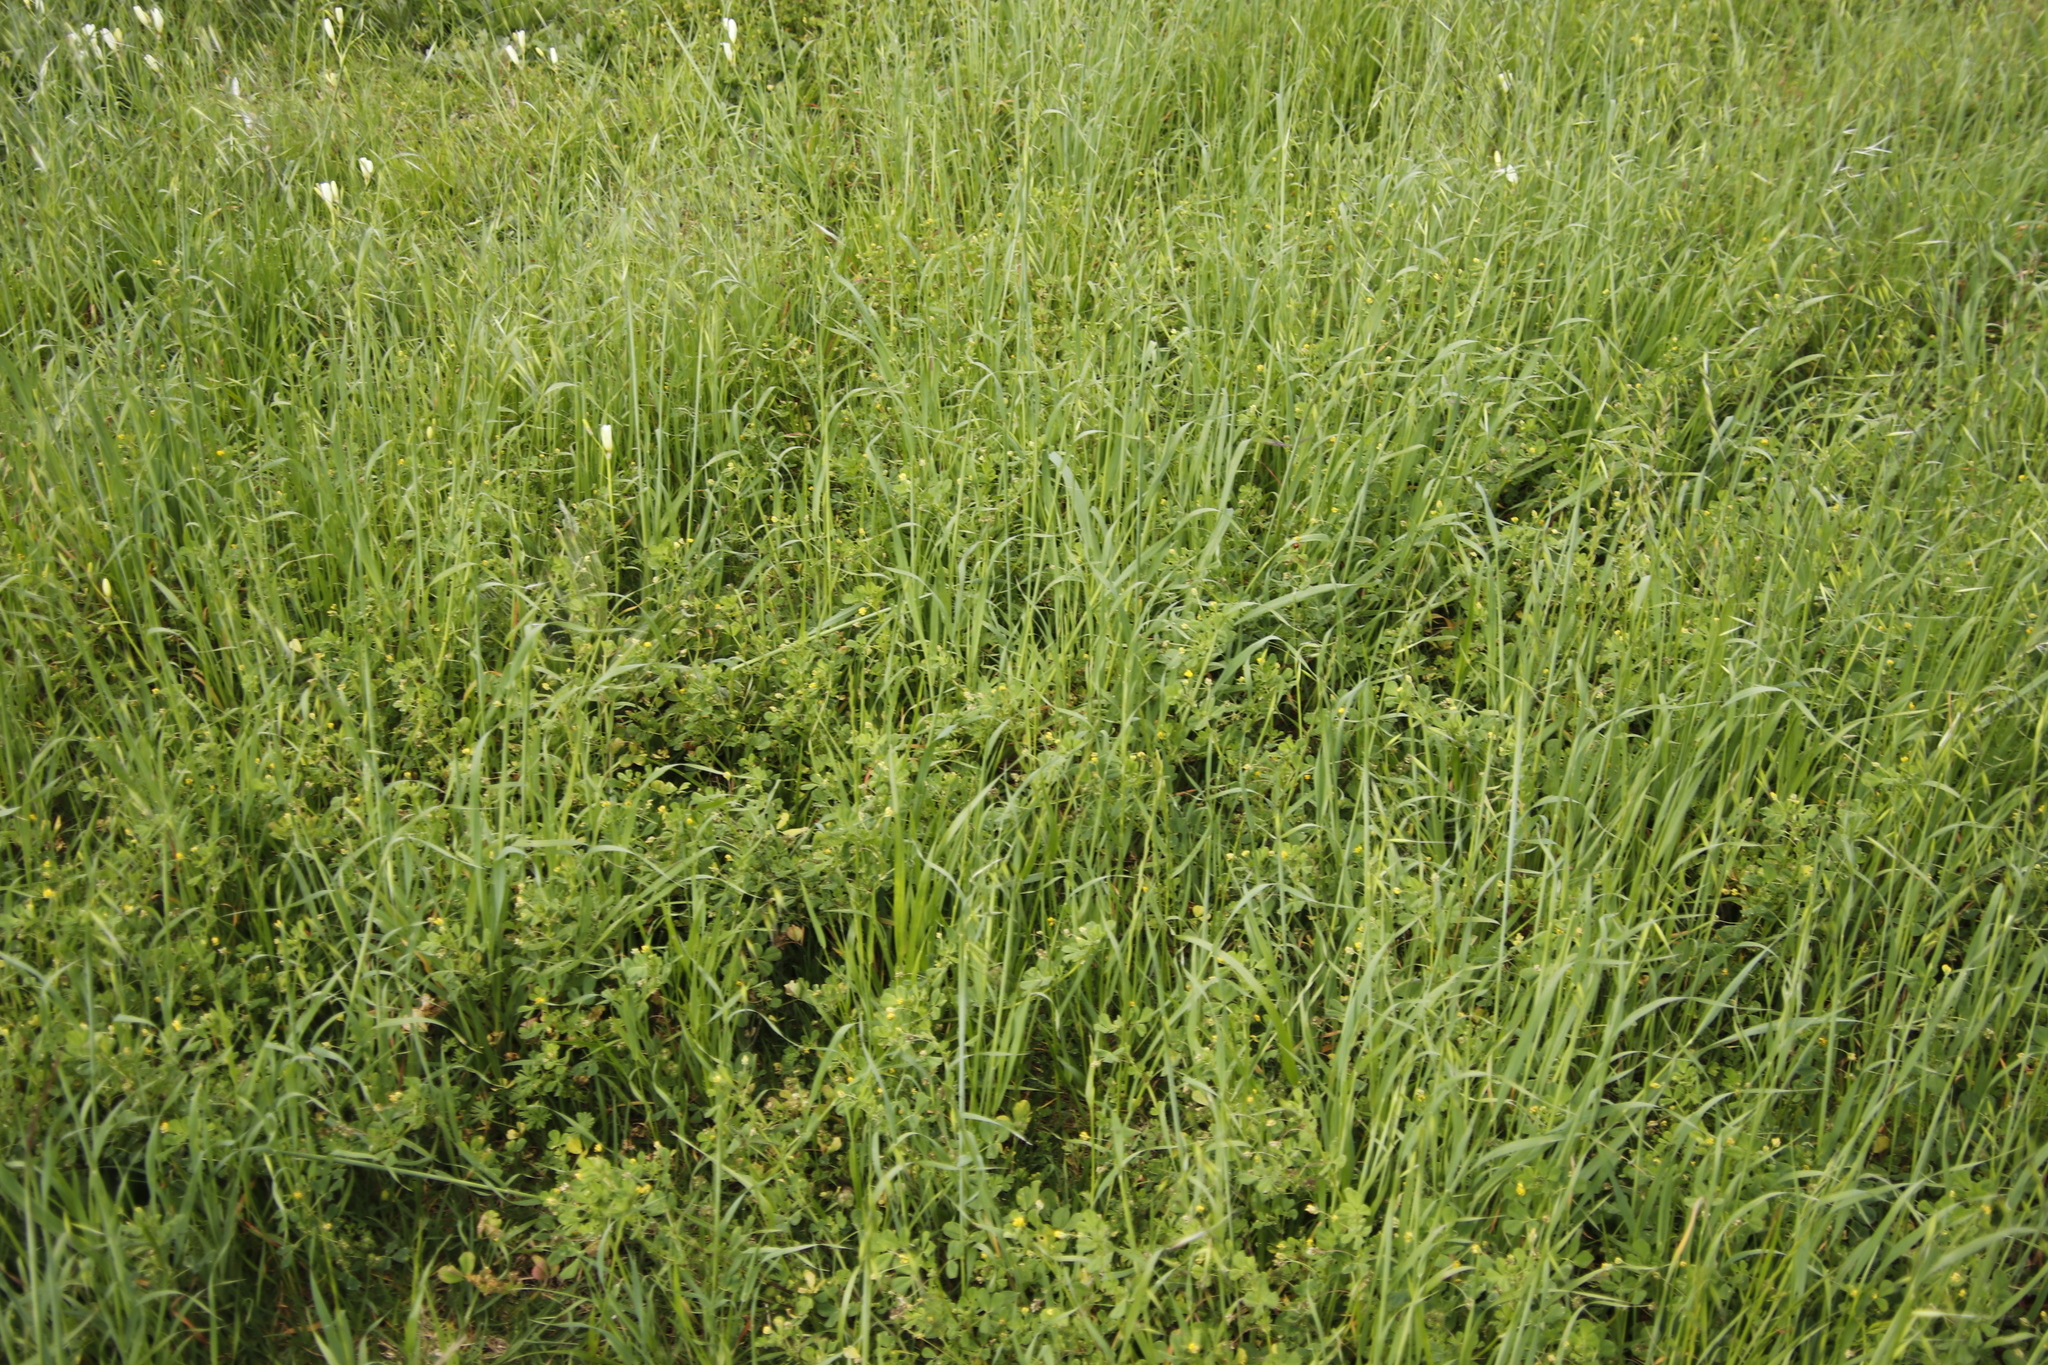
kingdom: Plantae
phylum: Tracheophyta
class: Magnoliopsida
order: Fabales
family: Fabaceae
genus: Medicago
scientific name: Medicago polymorpha
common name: Burclover
